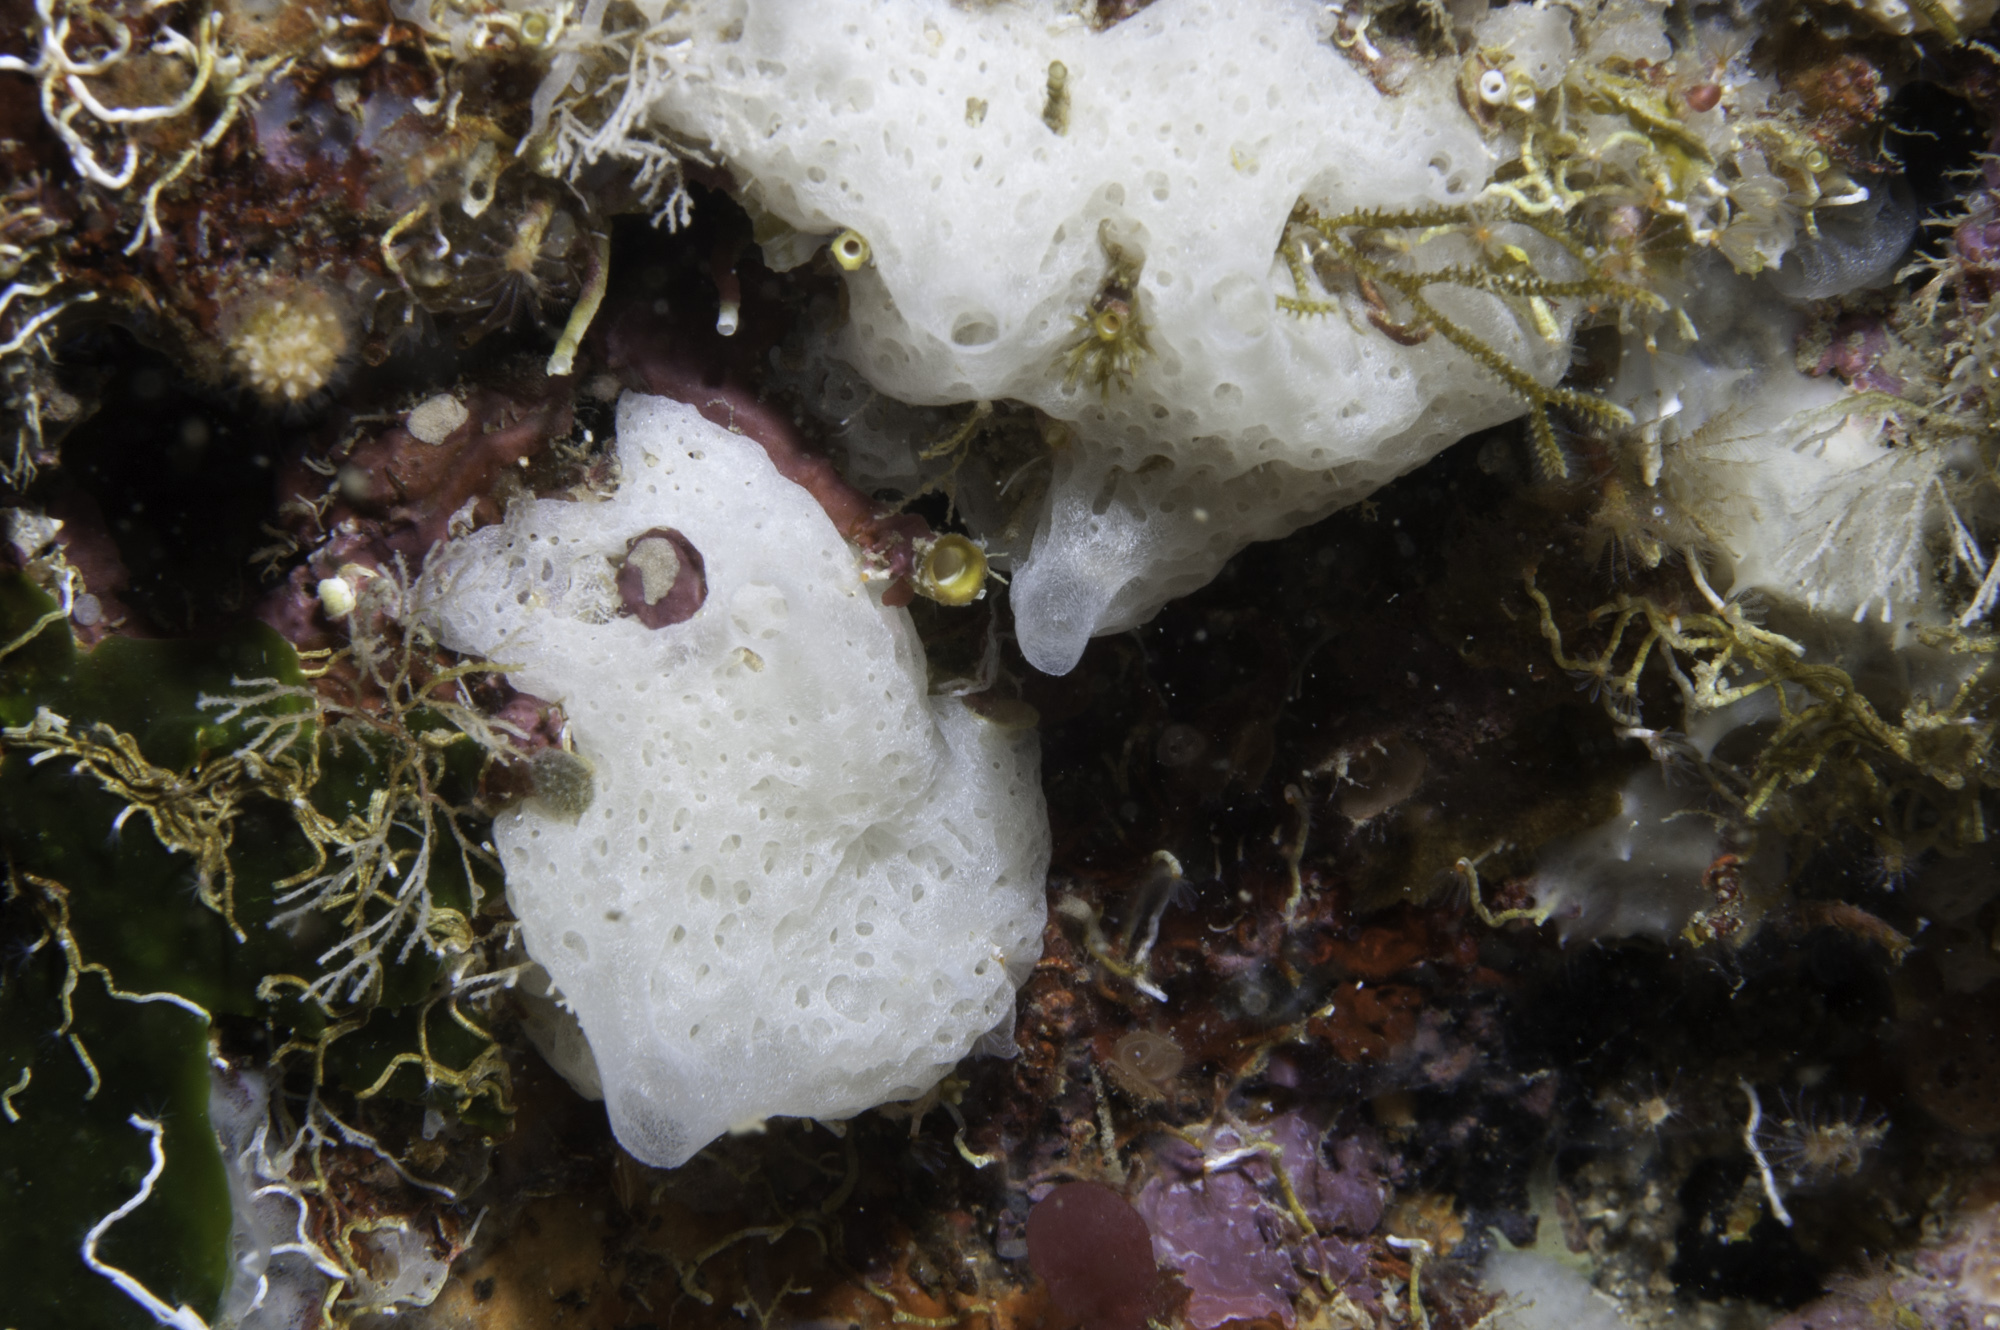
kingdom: Animalia
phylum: Porifera
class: Calcarea
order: Clathrinida
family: Clathrinidae
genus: Borojevia
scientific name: Borojevia cerebrum
